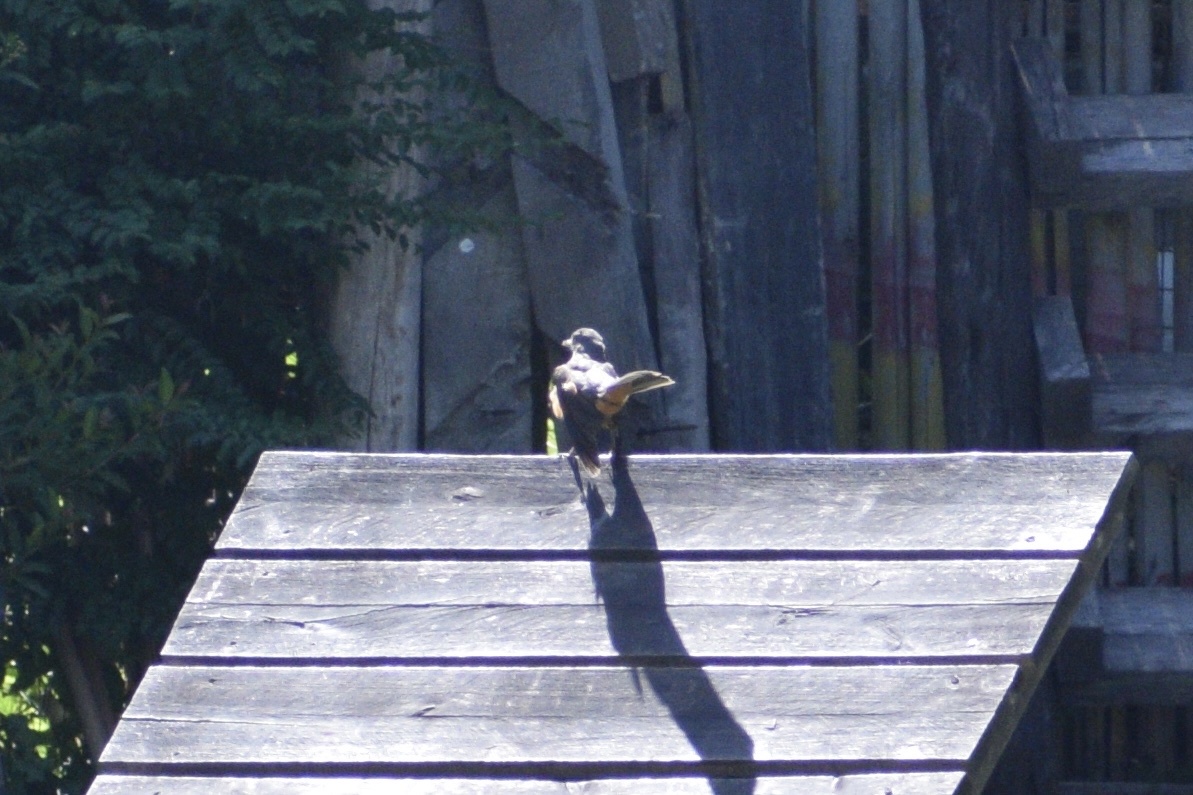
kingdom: Animalia
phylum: Chordata
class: Aves
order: Passeriformes
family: Turdidae
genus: Turdus
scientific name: Turdus rufiventris
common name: Rufous-bellied thrush
